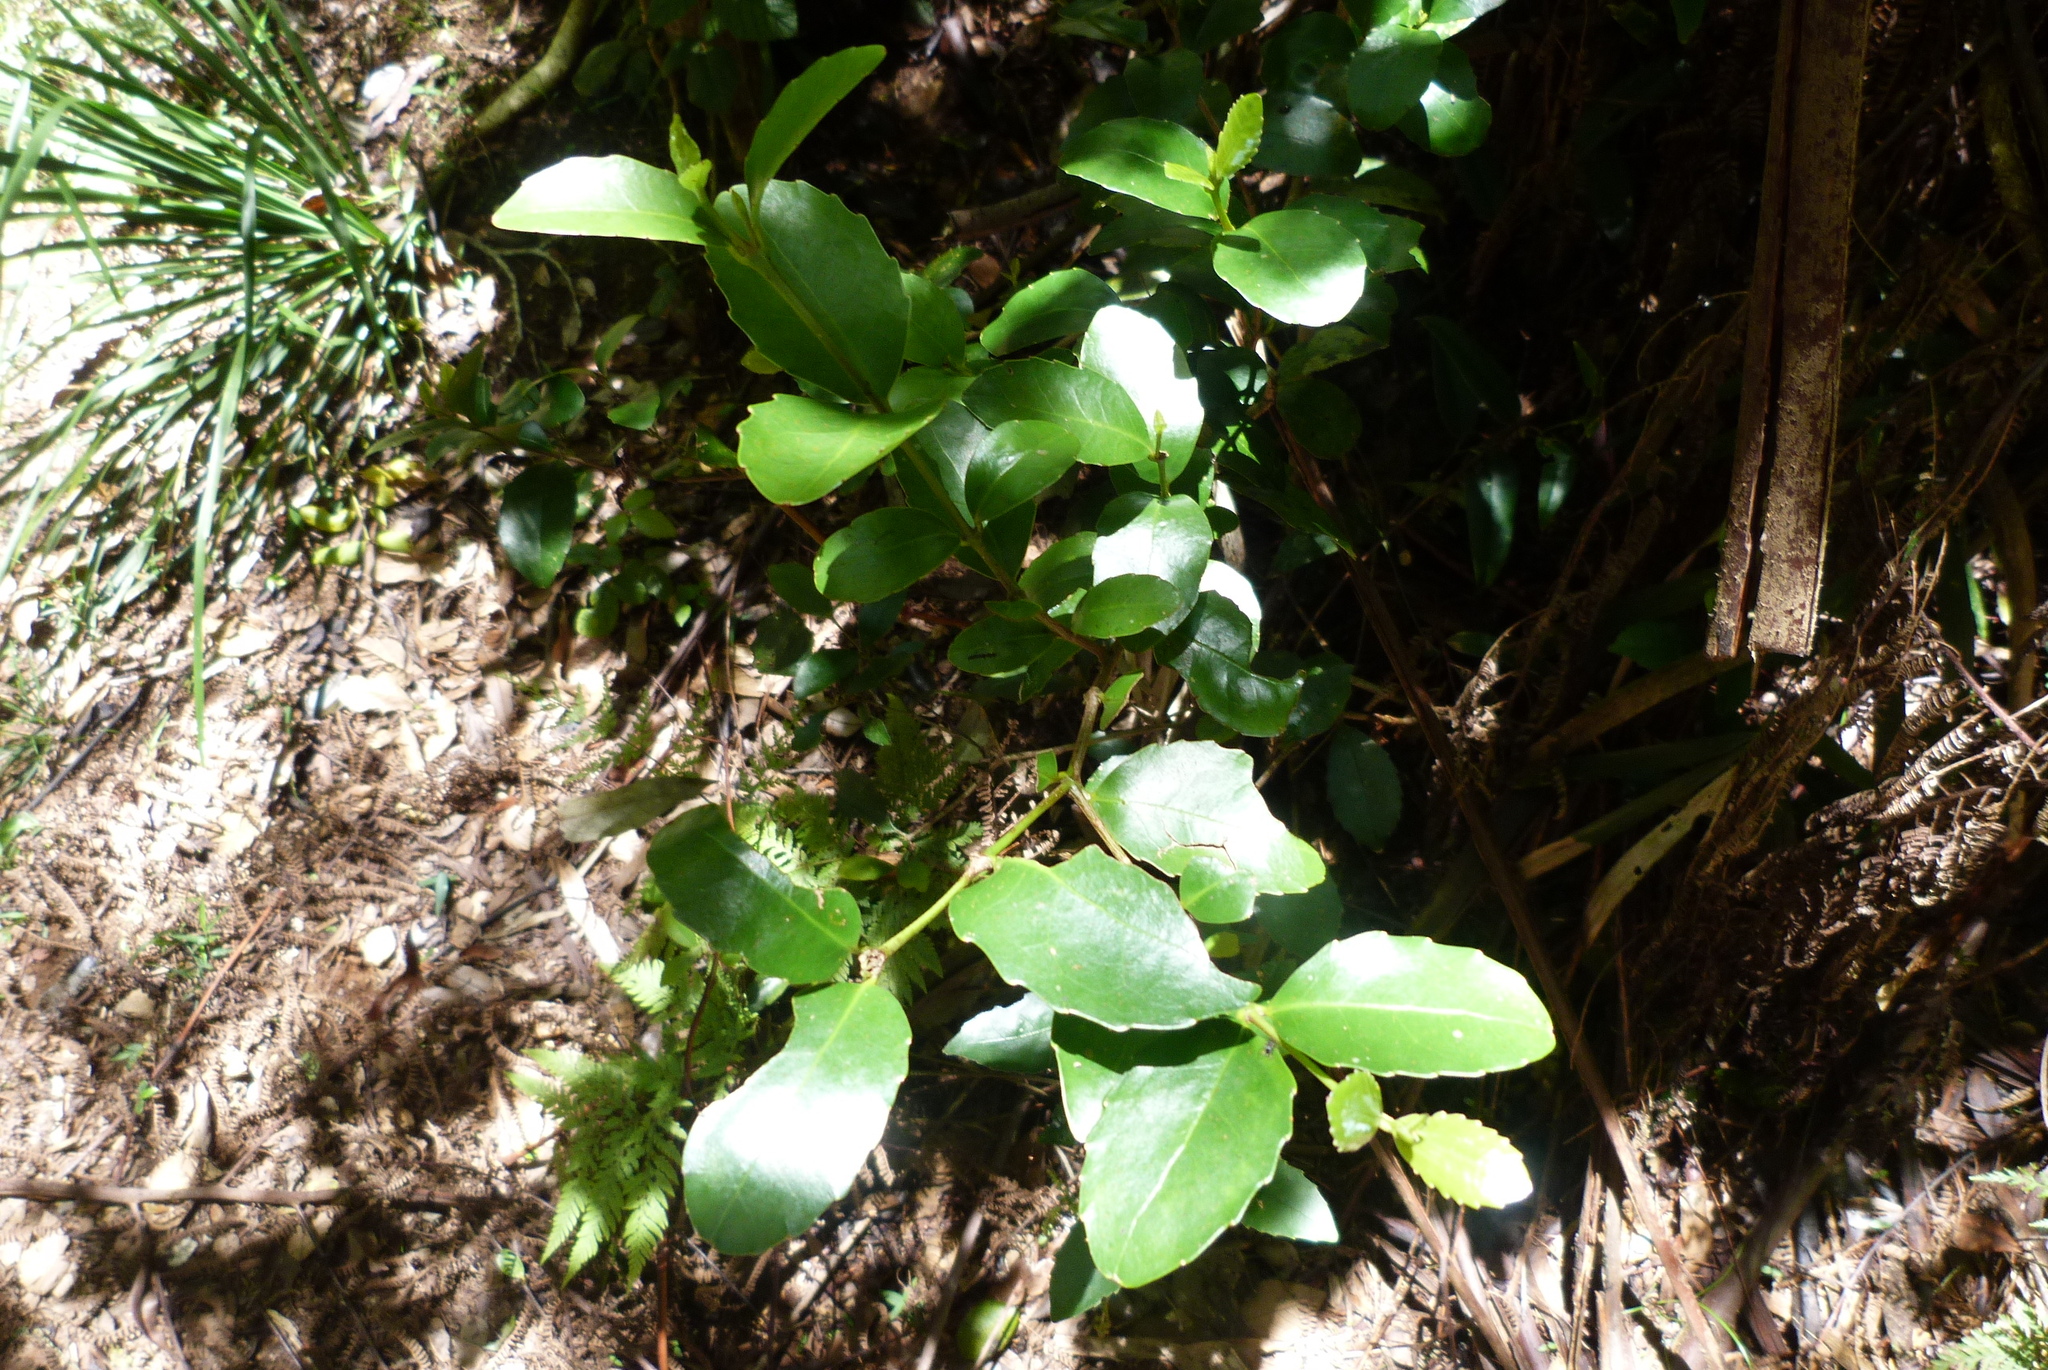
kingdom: Plantae
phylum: Tracheophyta
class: Magnoliopsida
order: Laurales
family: Atherospermataceae
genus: Doryphora
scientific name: Doryphora sassafras
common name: Golden-sassafras
